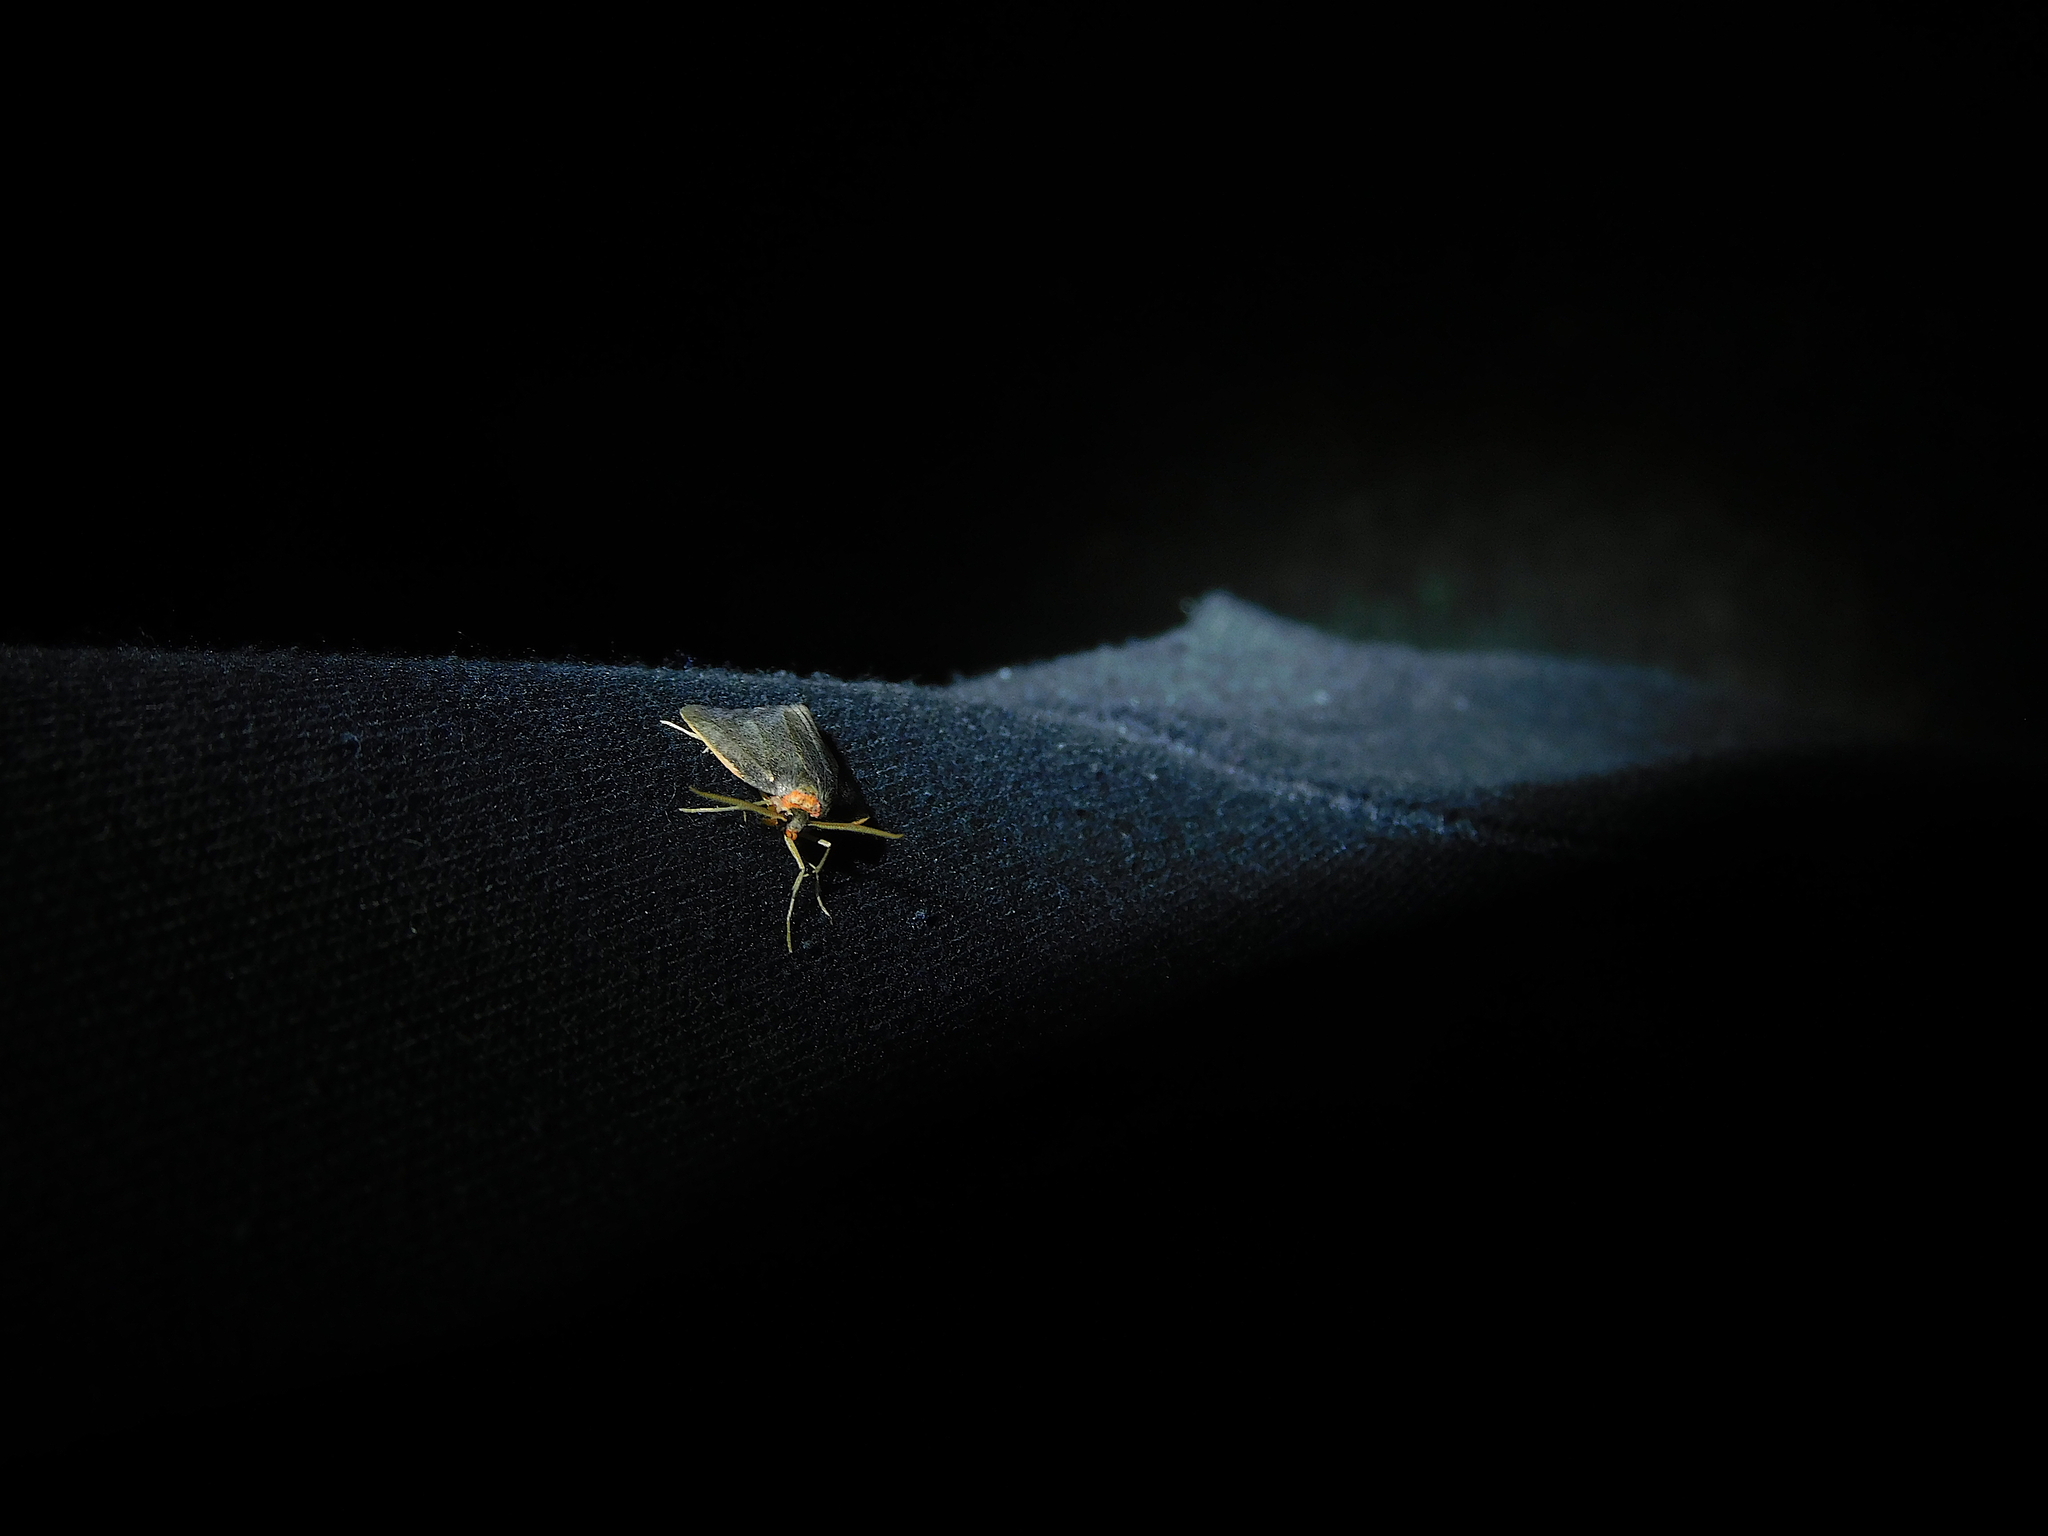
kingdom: Animalia
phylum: Arthropoda
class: Insecta
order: Lepidoptera
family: Erebidae
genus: Castulo
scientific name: Castulo doubledayi
